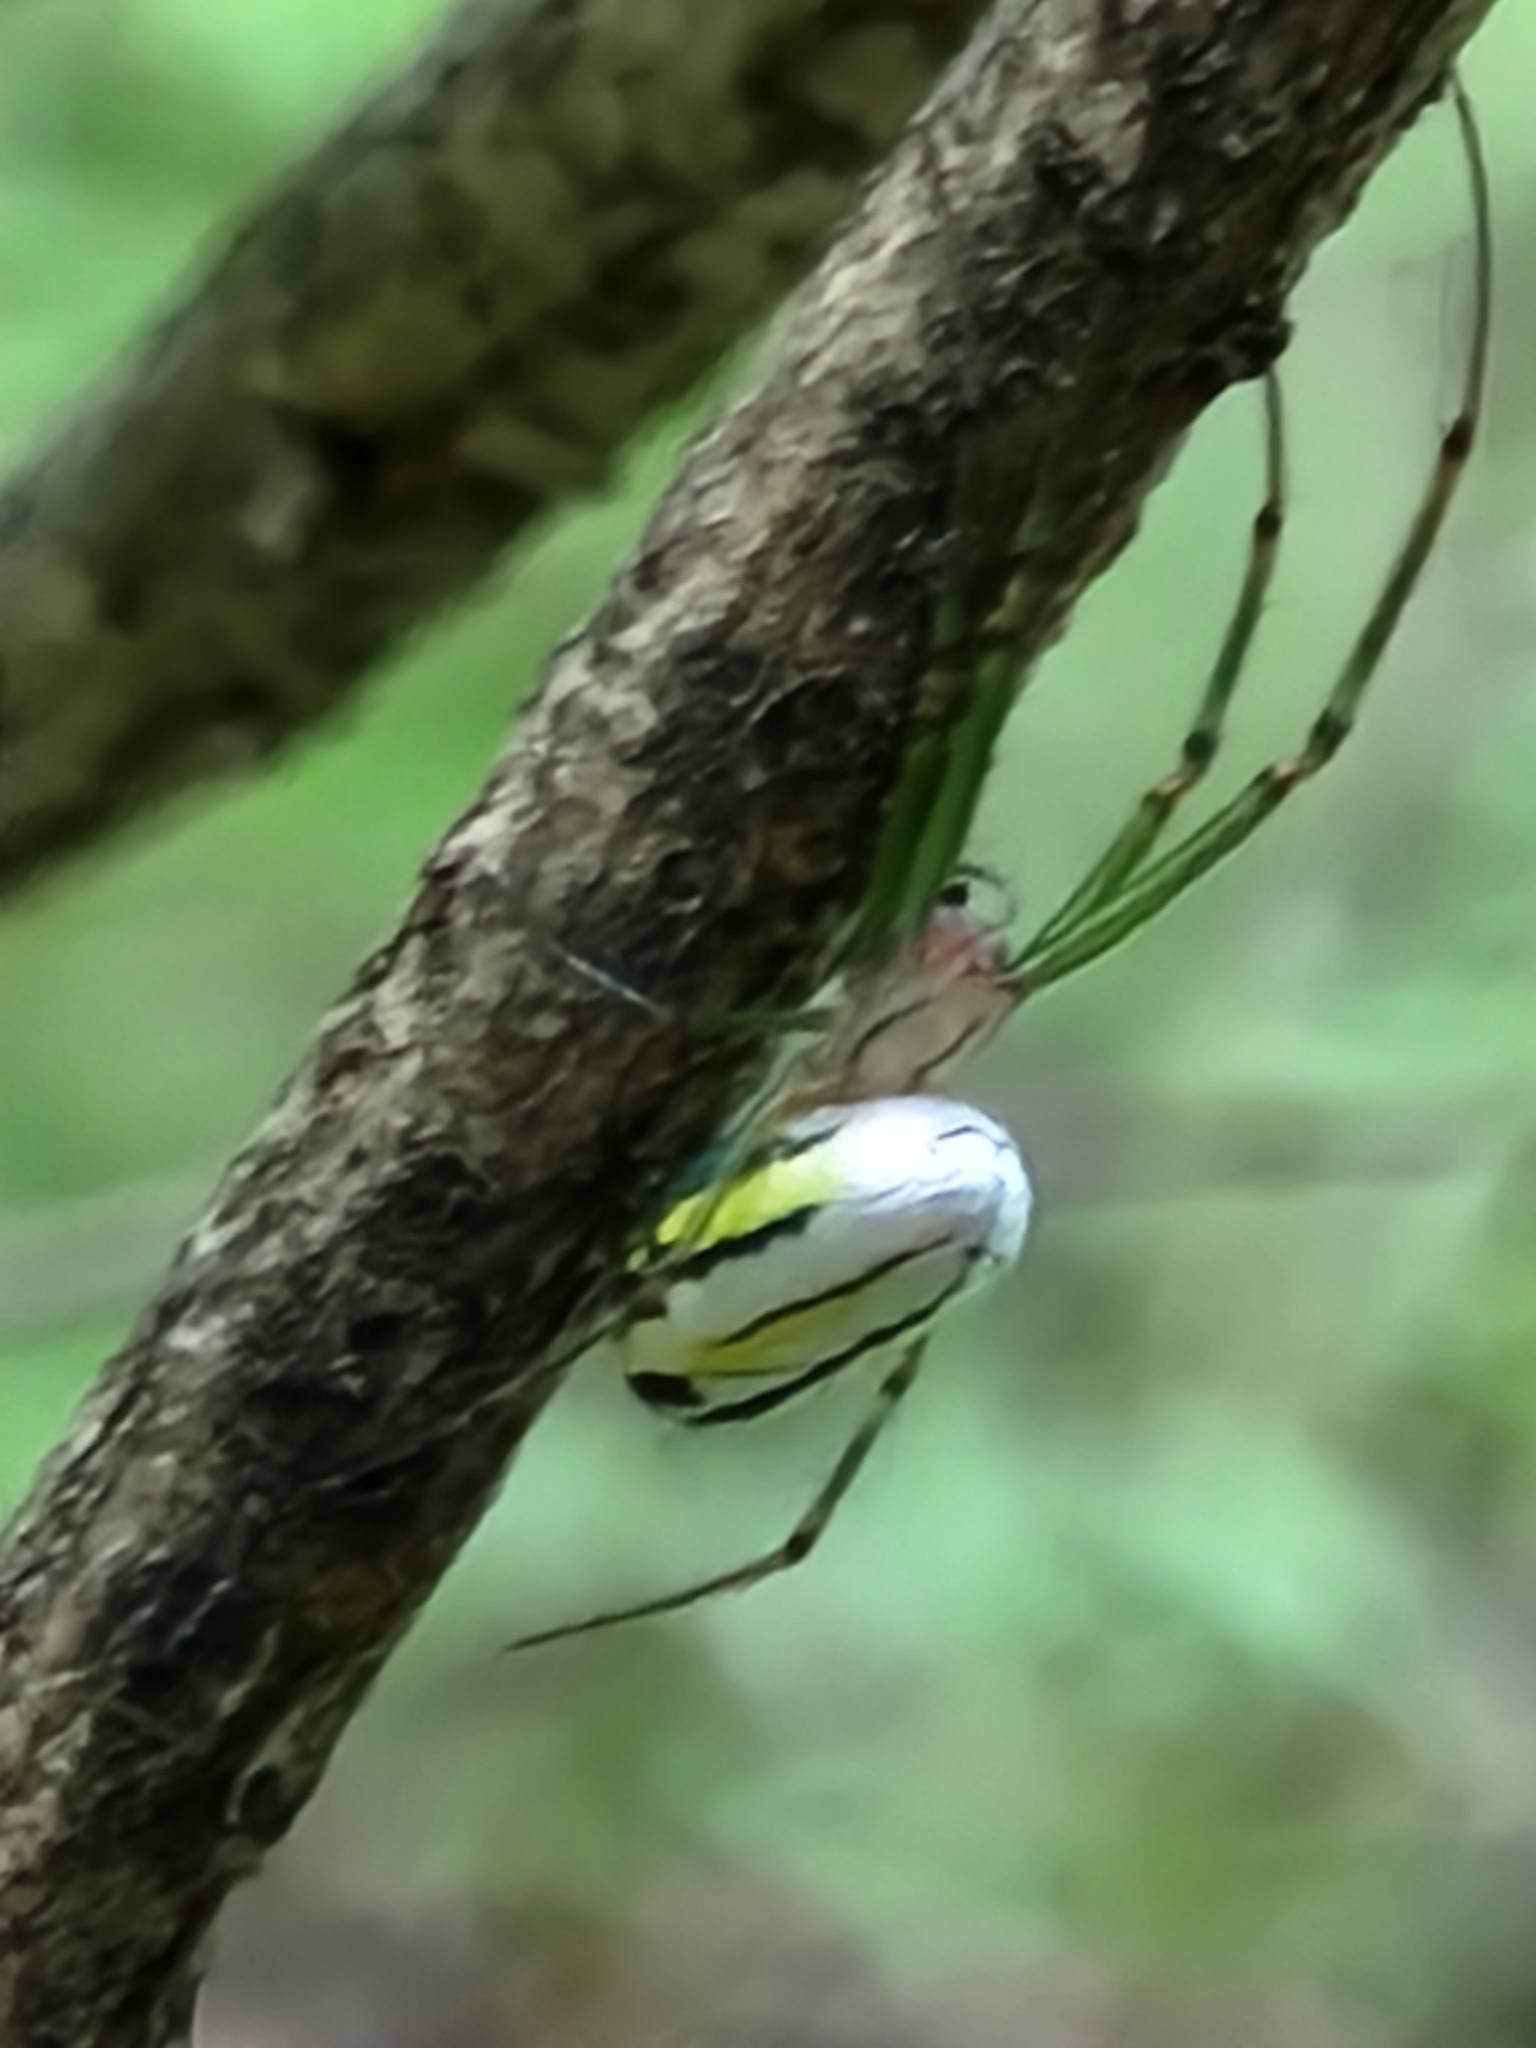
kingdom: Animalia
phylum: Arthropoda
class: Arachnida
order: Araneae
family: Tetragnathidae
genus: Leucauge
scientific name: Leucauge venusta
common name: Longjawed orb weavers
